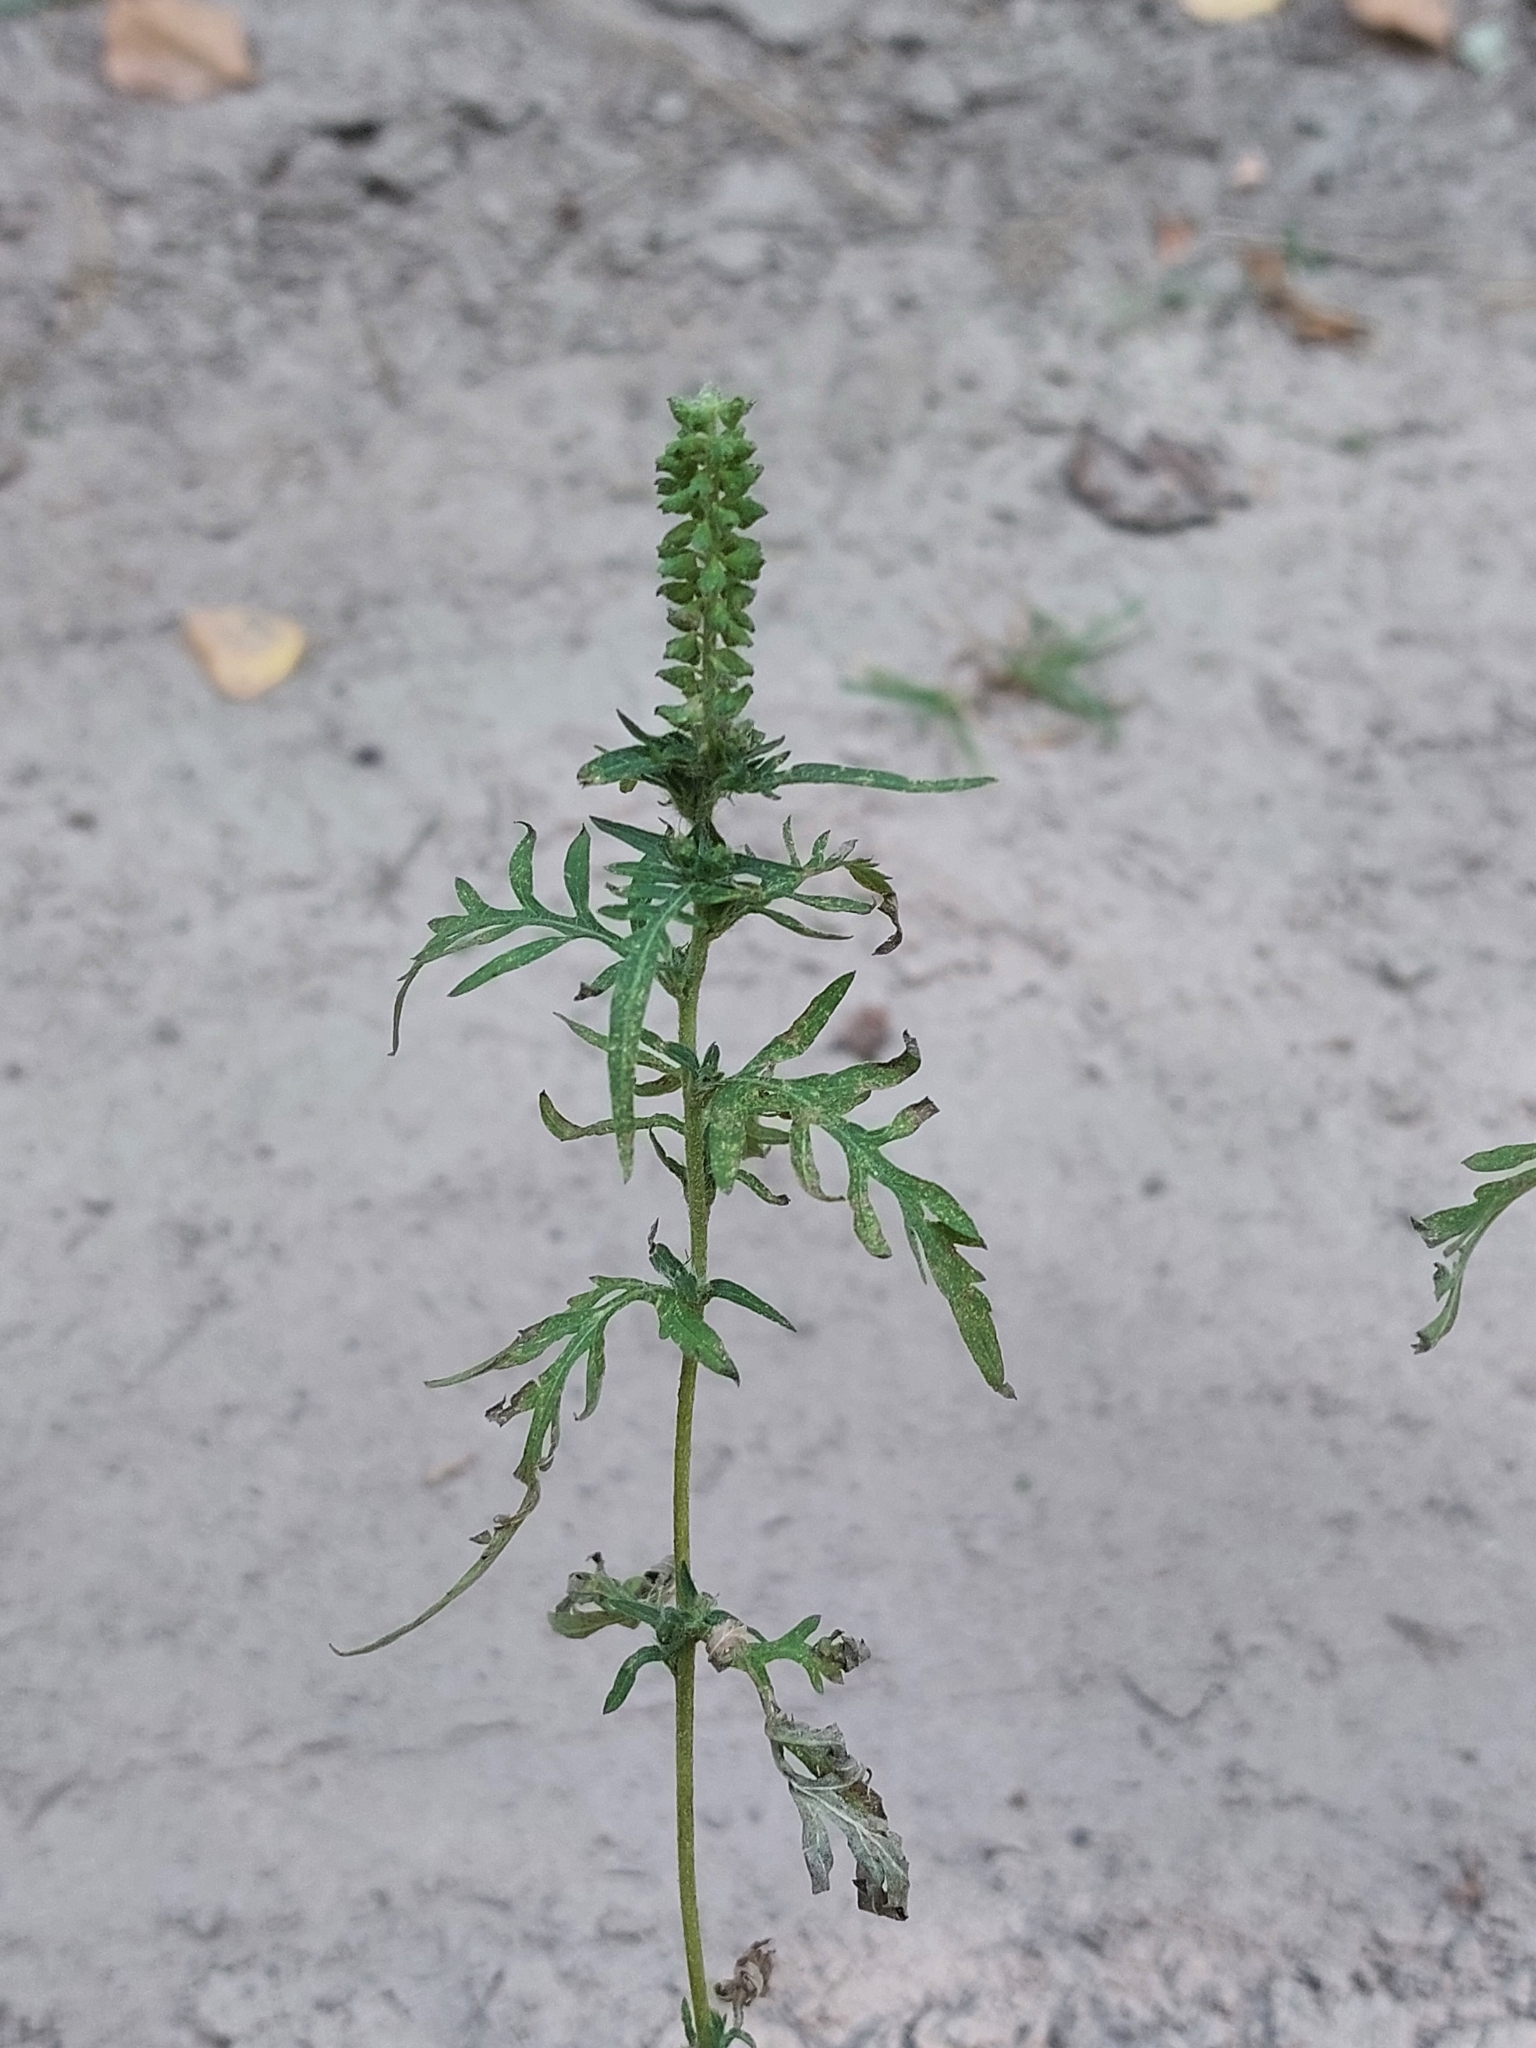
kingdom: Plantae
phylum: Tracheophyta
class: Magnoliopsida
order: Asterales
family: Asteraceae
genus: Ambrosia
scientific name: Ambrosia artemisiifolia
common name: Annual ragweed
